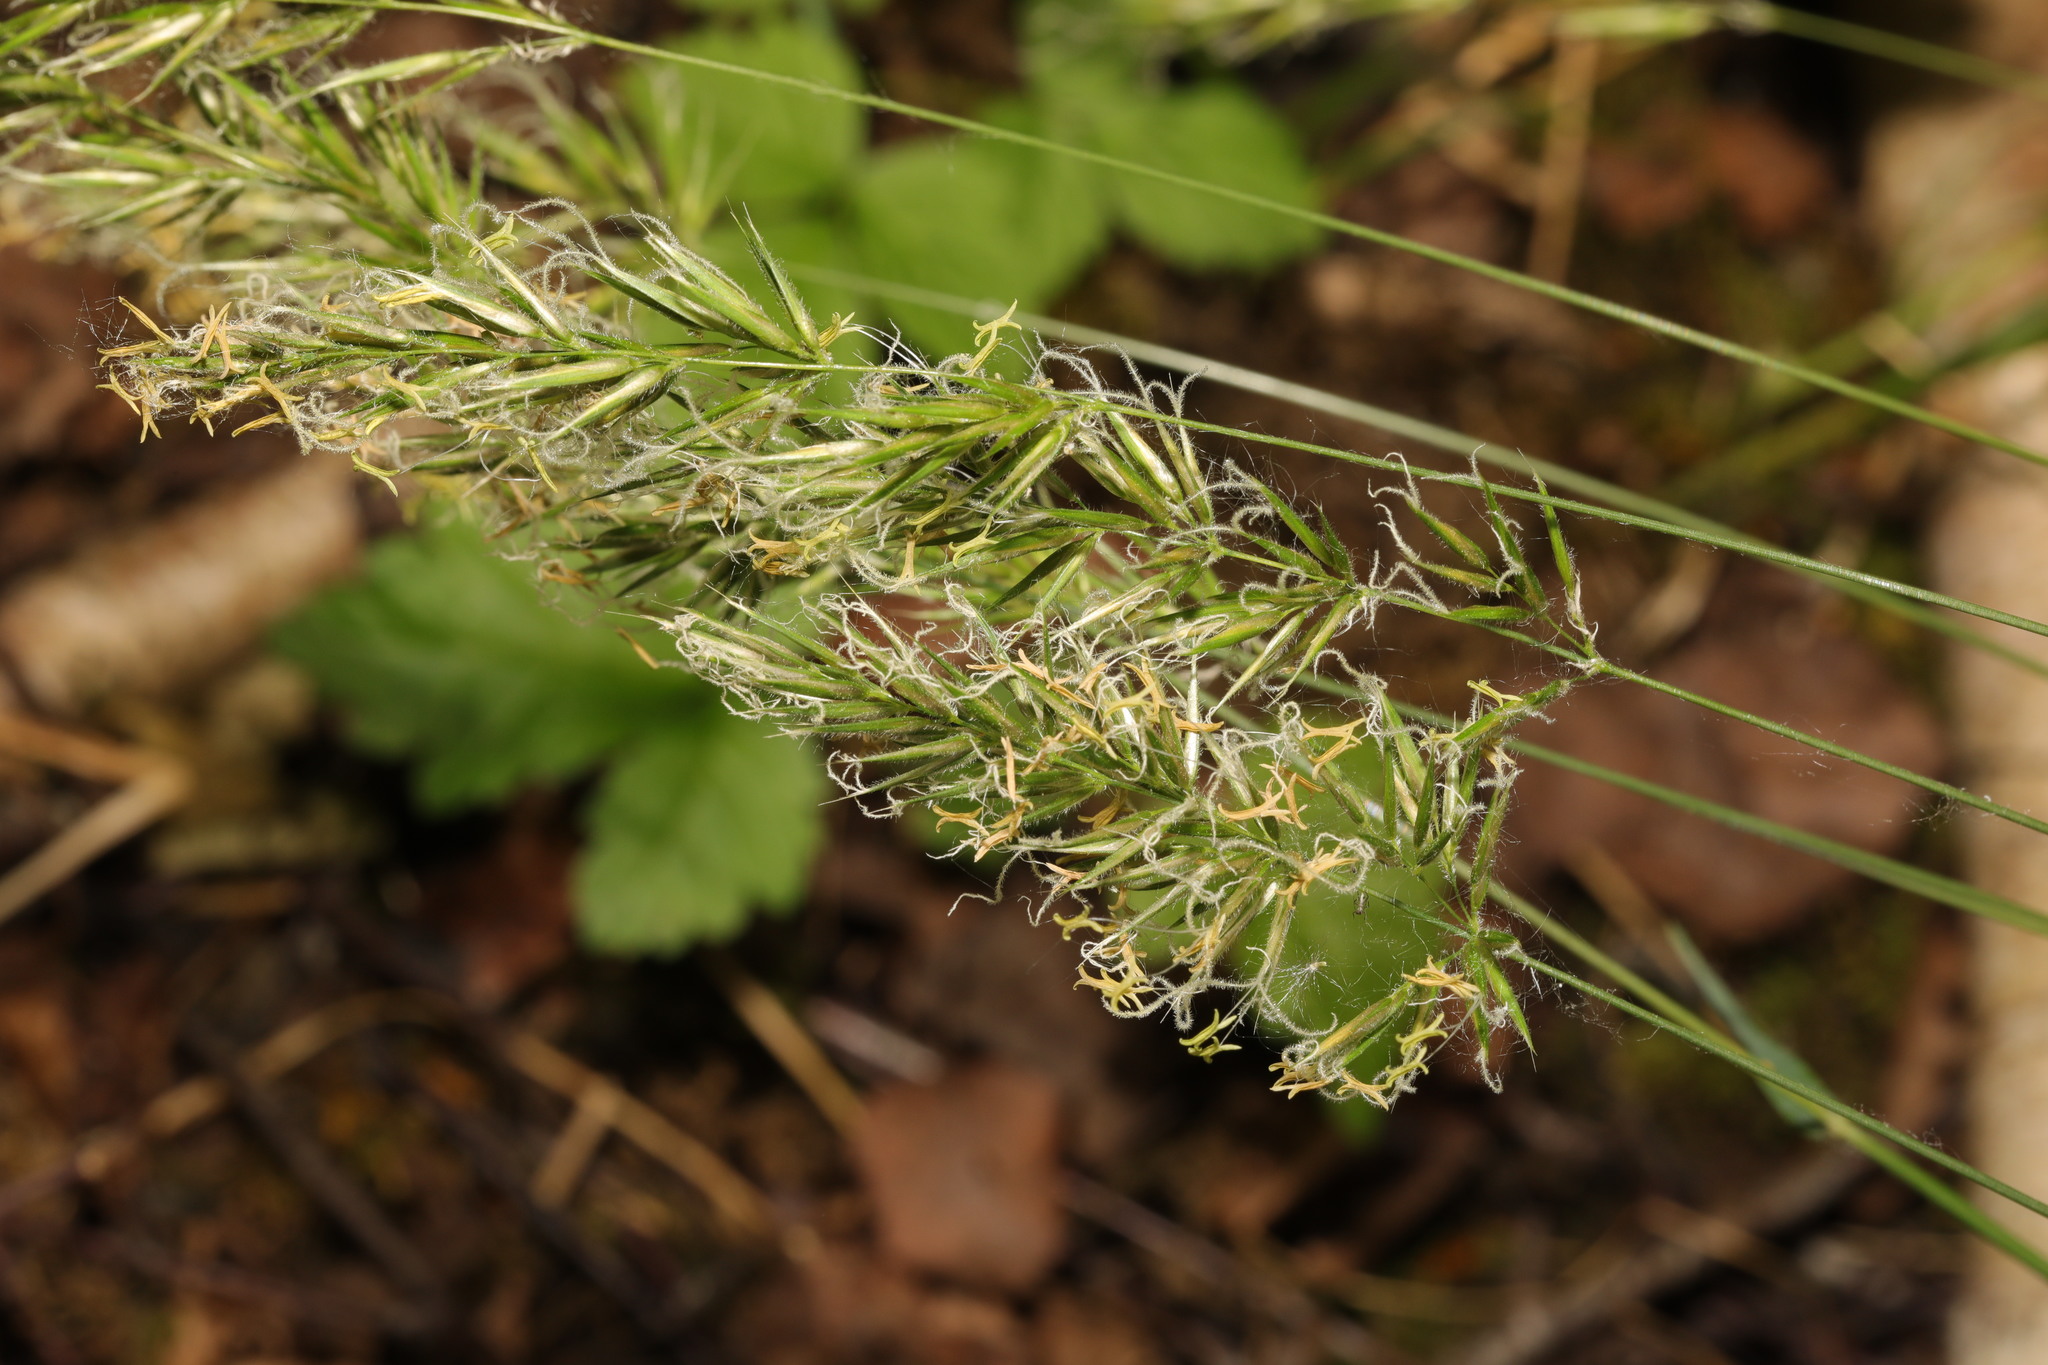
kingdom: Plantae
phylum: Tracheophyta
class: Liliopsida
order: Poales
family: Poaceae
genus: Anthoxanthum
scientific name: Anthoxanthum odoratum
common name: Sweet vernalgrass
